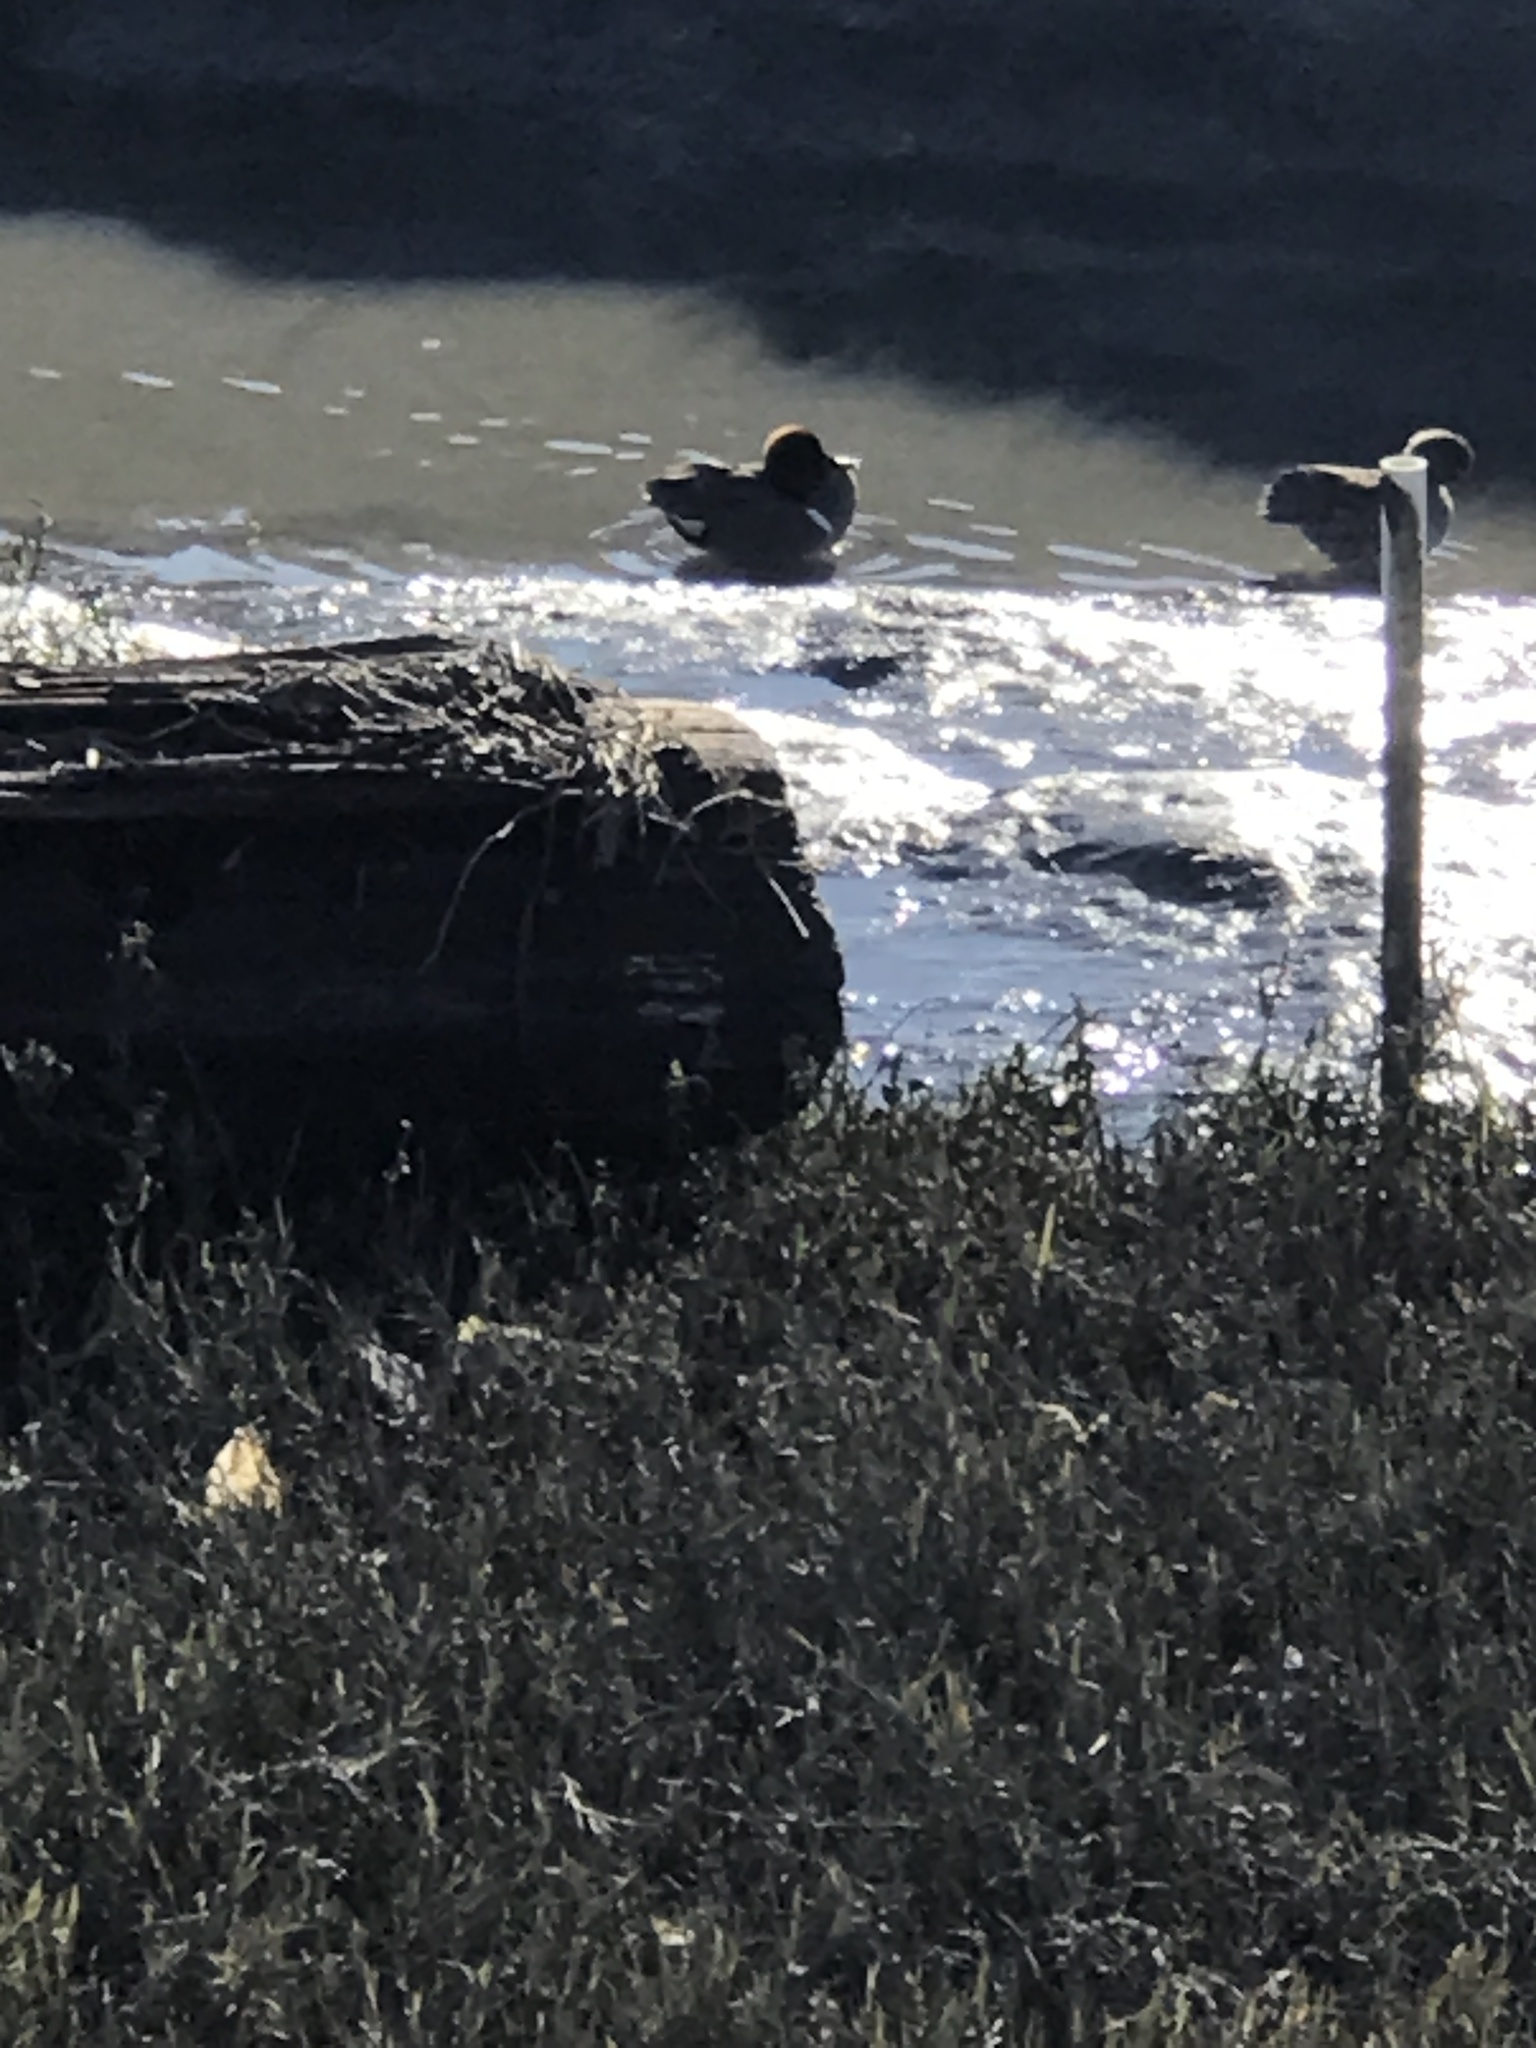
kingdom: Animalia
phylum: Chordata
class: Aves
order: Anseriformes
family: Anatidae
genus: Anas
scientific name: Anas crecca
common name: Eurasian teal
